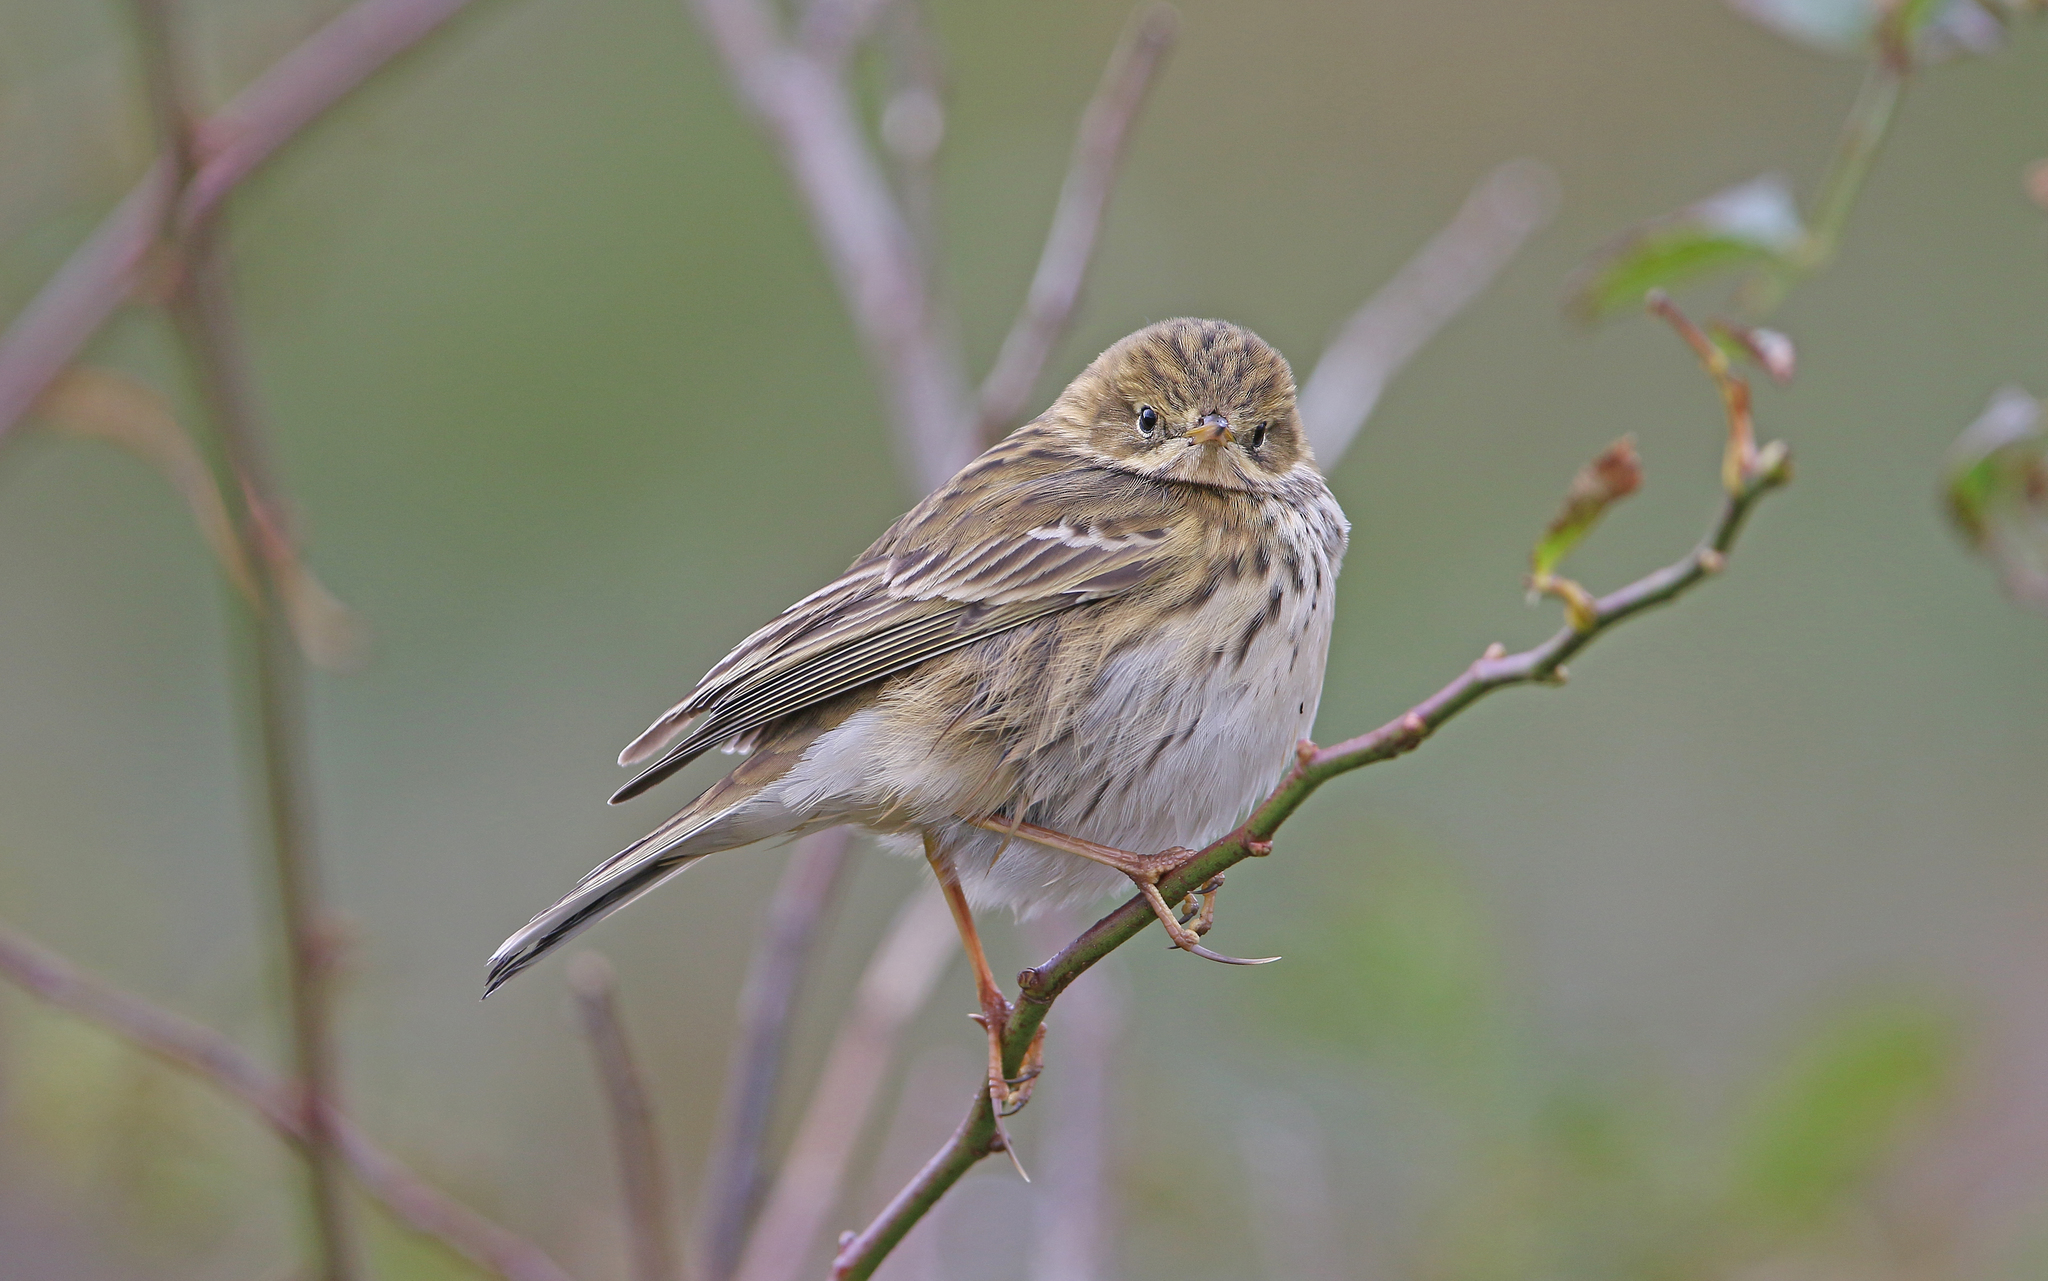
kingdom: Animalia
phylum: Chordata
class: Aves
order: Passeriformes
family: Motacillidae
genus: Anthus
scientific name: Anthus pratensis
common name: Meadow pipit
